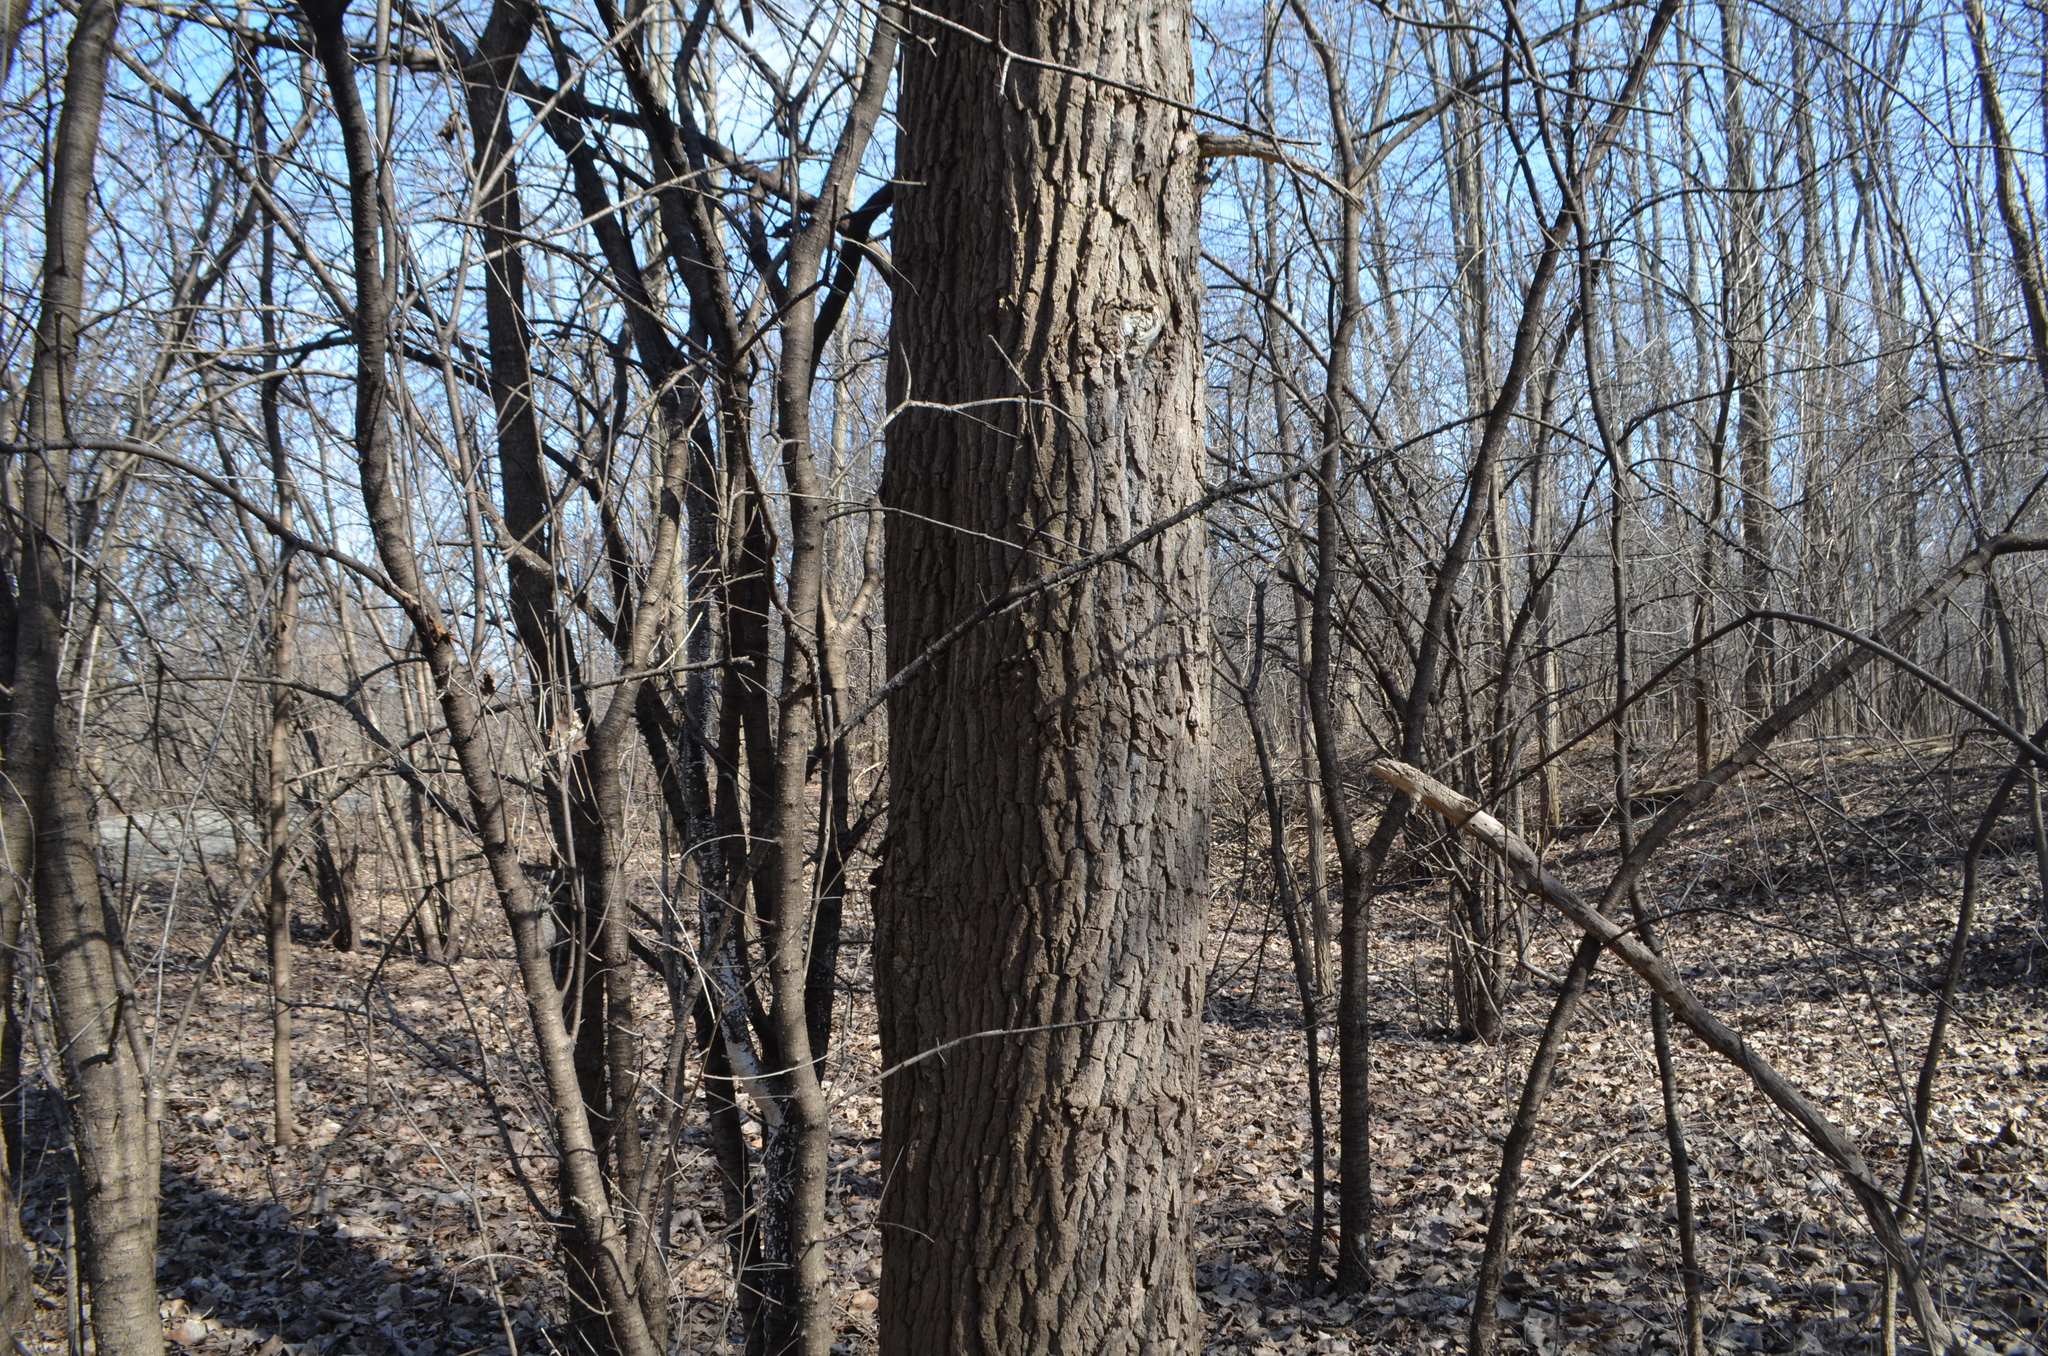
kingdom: Plantae
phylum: Tracheophyta
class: Magnoliopsida
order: Malpighiales
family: Salicaceae
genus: Populus
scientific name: Populus alba
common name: White poplar
